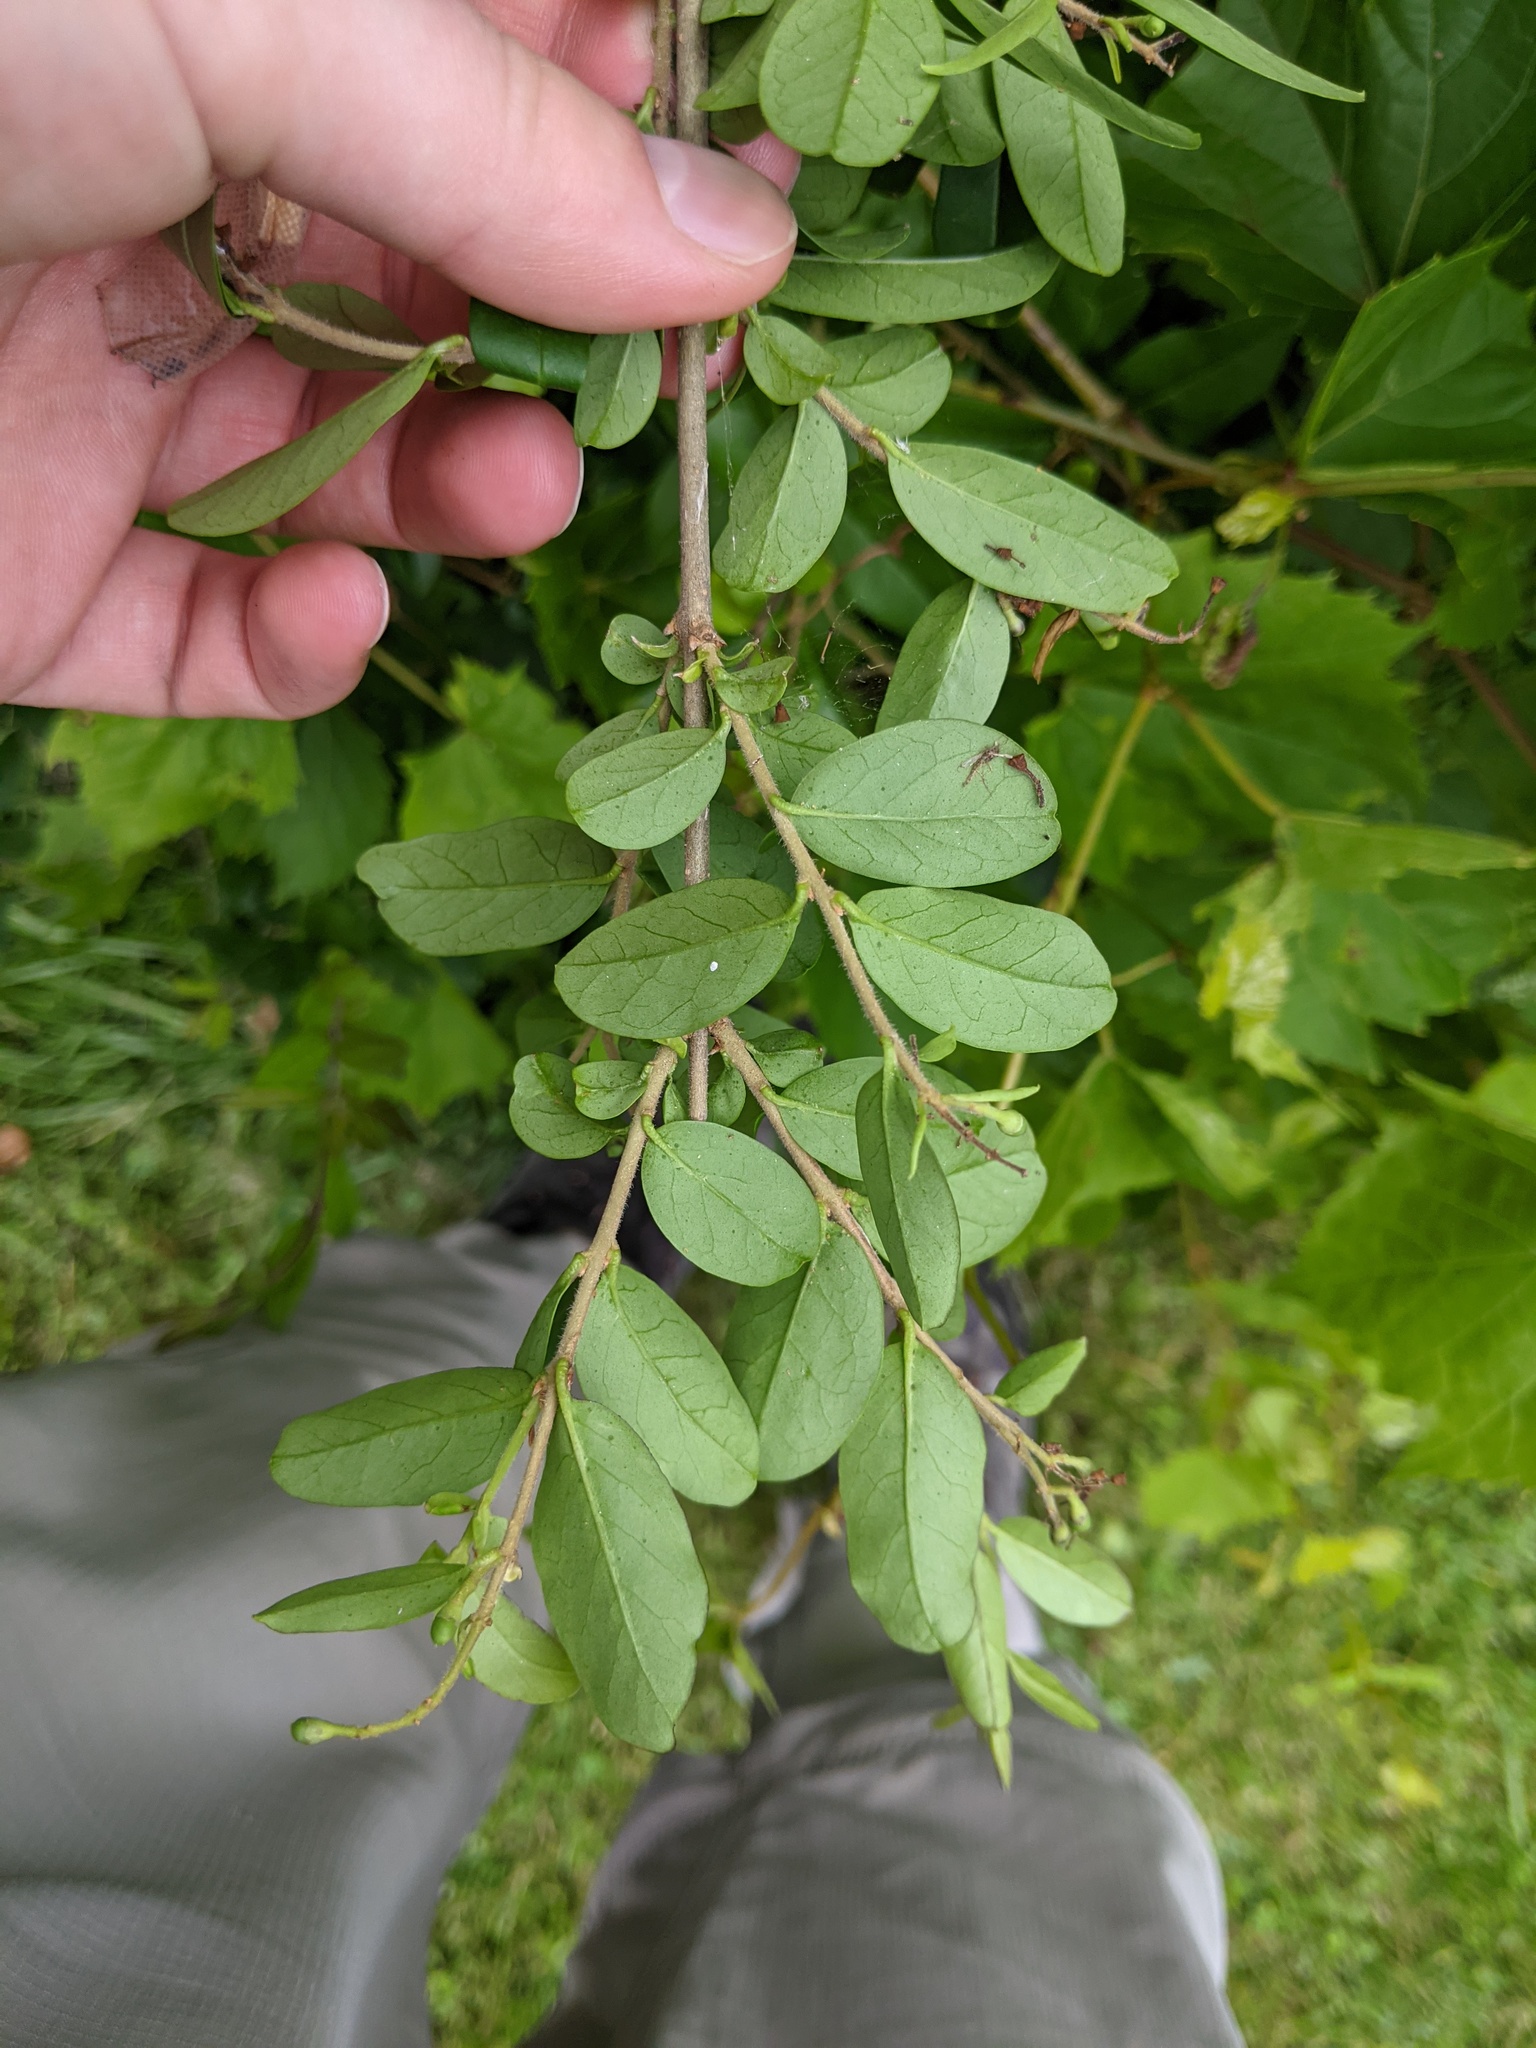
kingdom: Plantae
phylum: Tracheophyta
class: Magnoliopsida
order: Lamiales
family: Oleaceae
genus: Ligustrum
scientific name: Ligustrum obtusifolium
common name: Border privet
